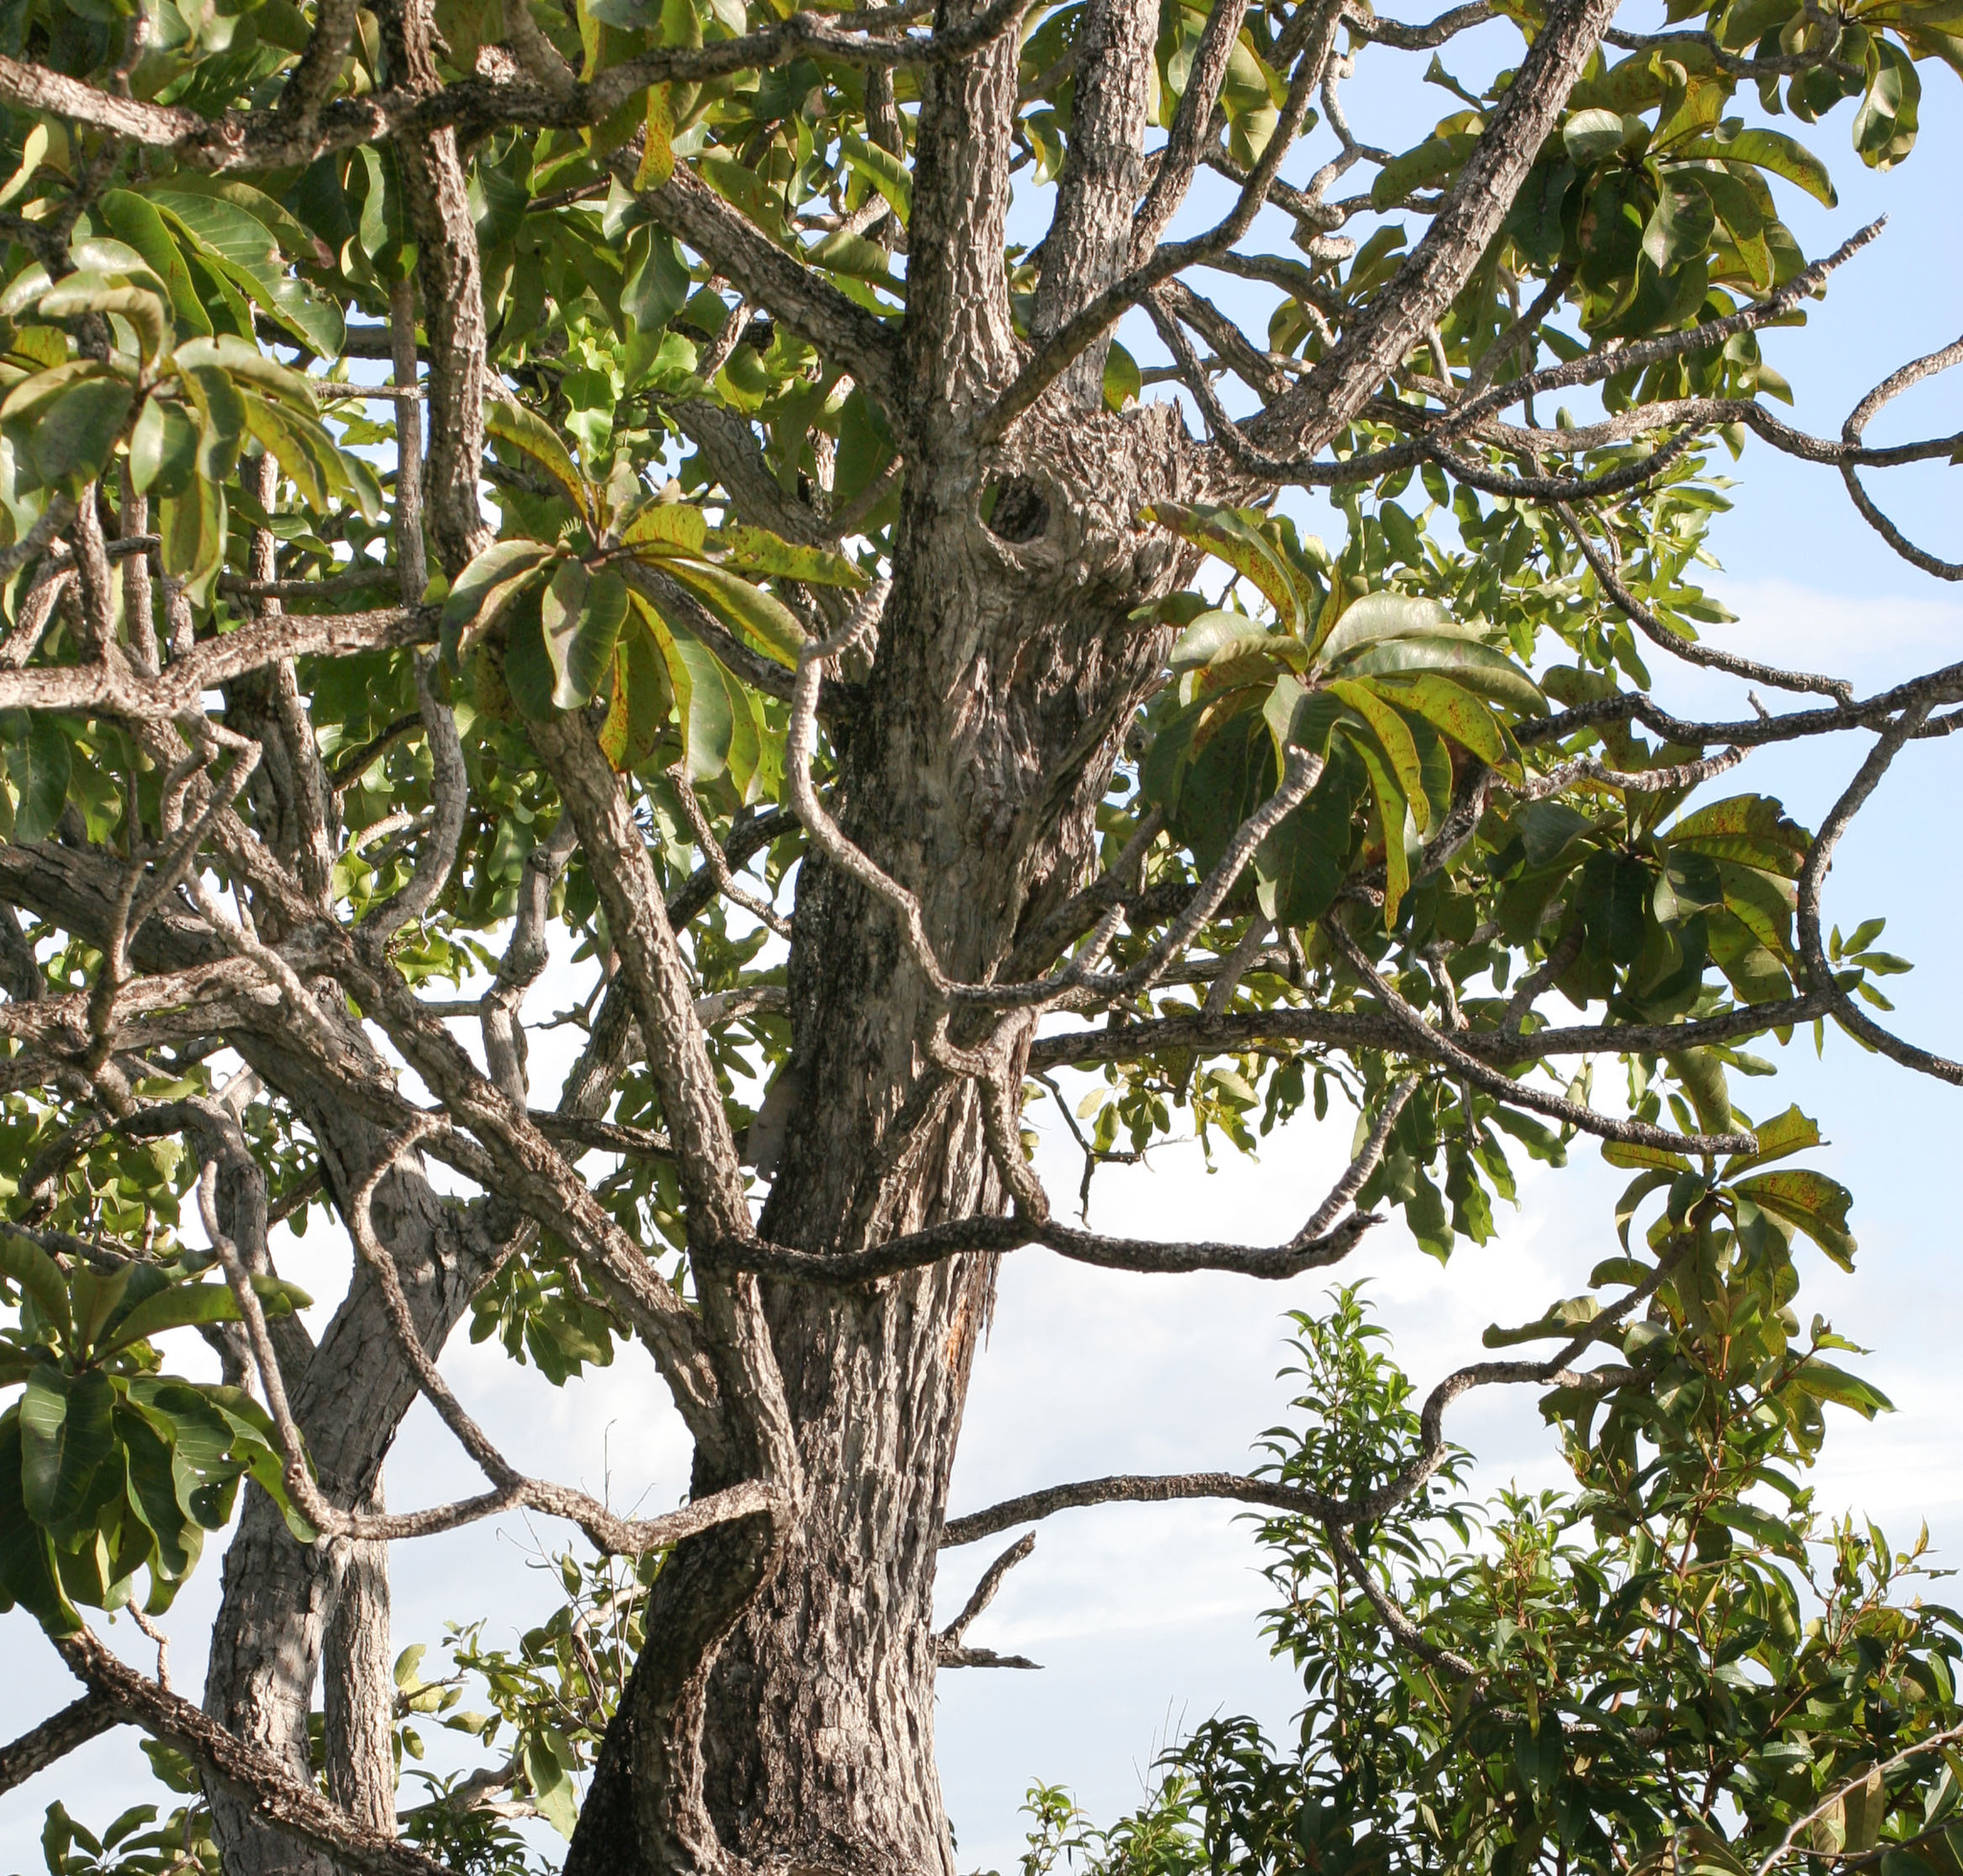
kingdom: Plantae
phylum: Tracheophyta
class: Magnoliopsida
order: Myrtales
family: Vochysiaceae
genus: Salvertia
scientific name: Salvertia convallariodora
